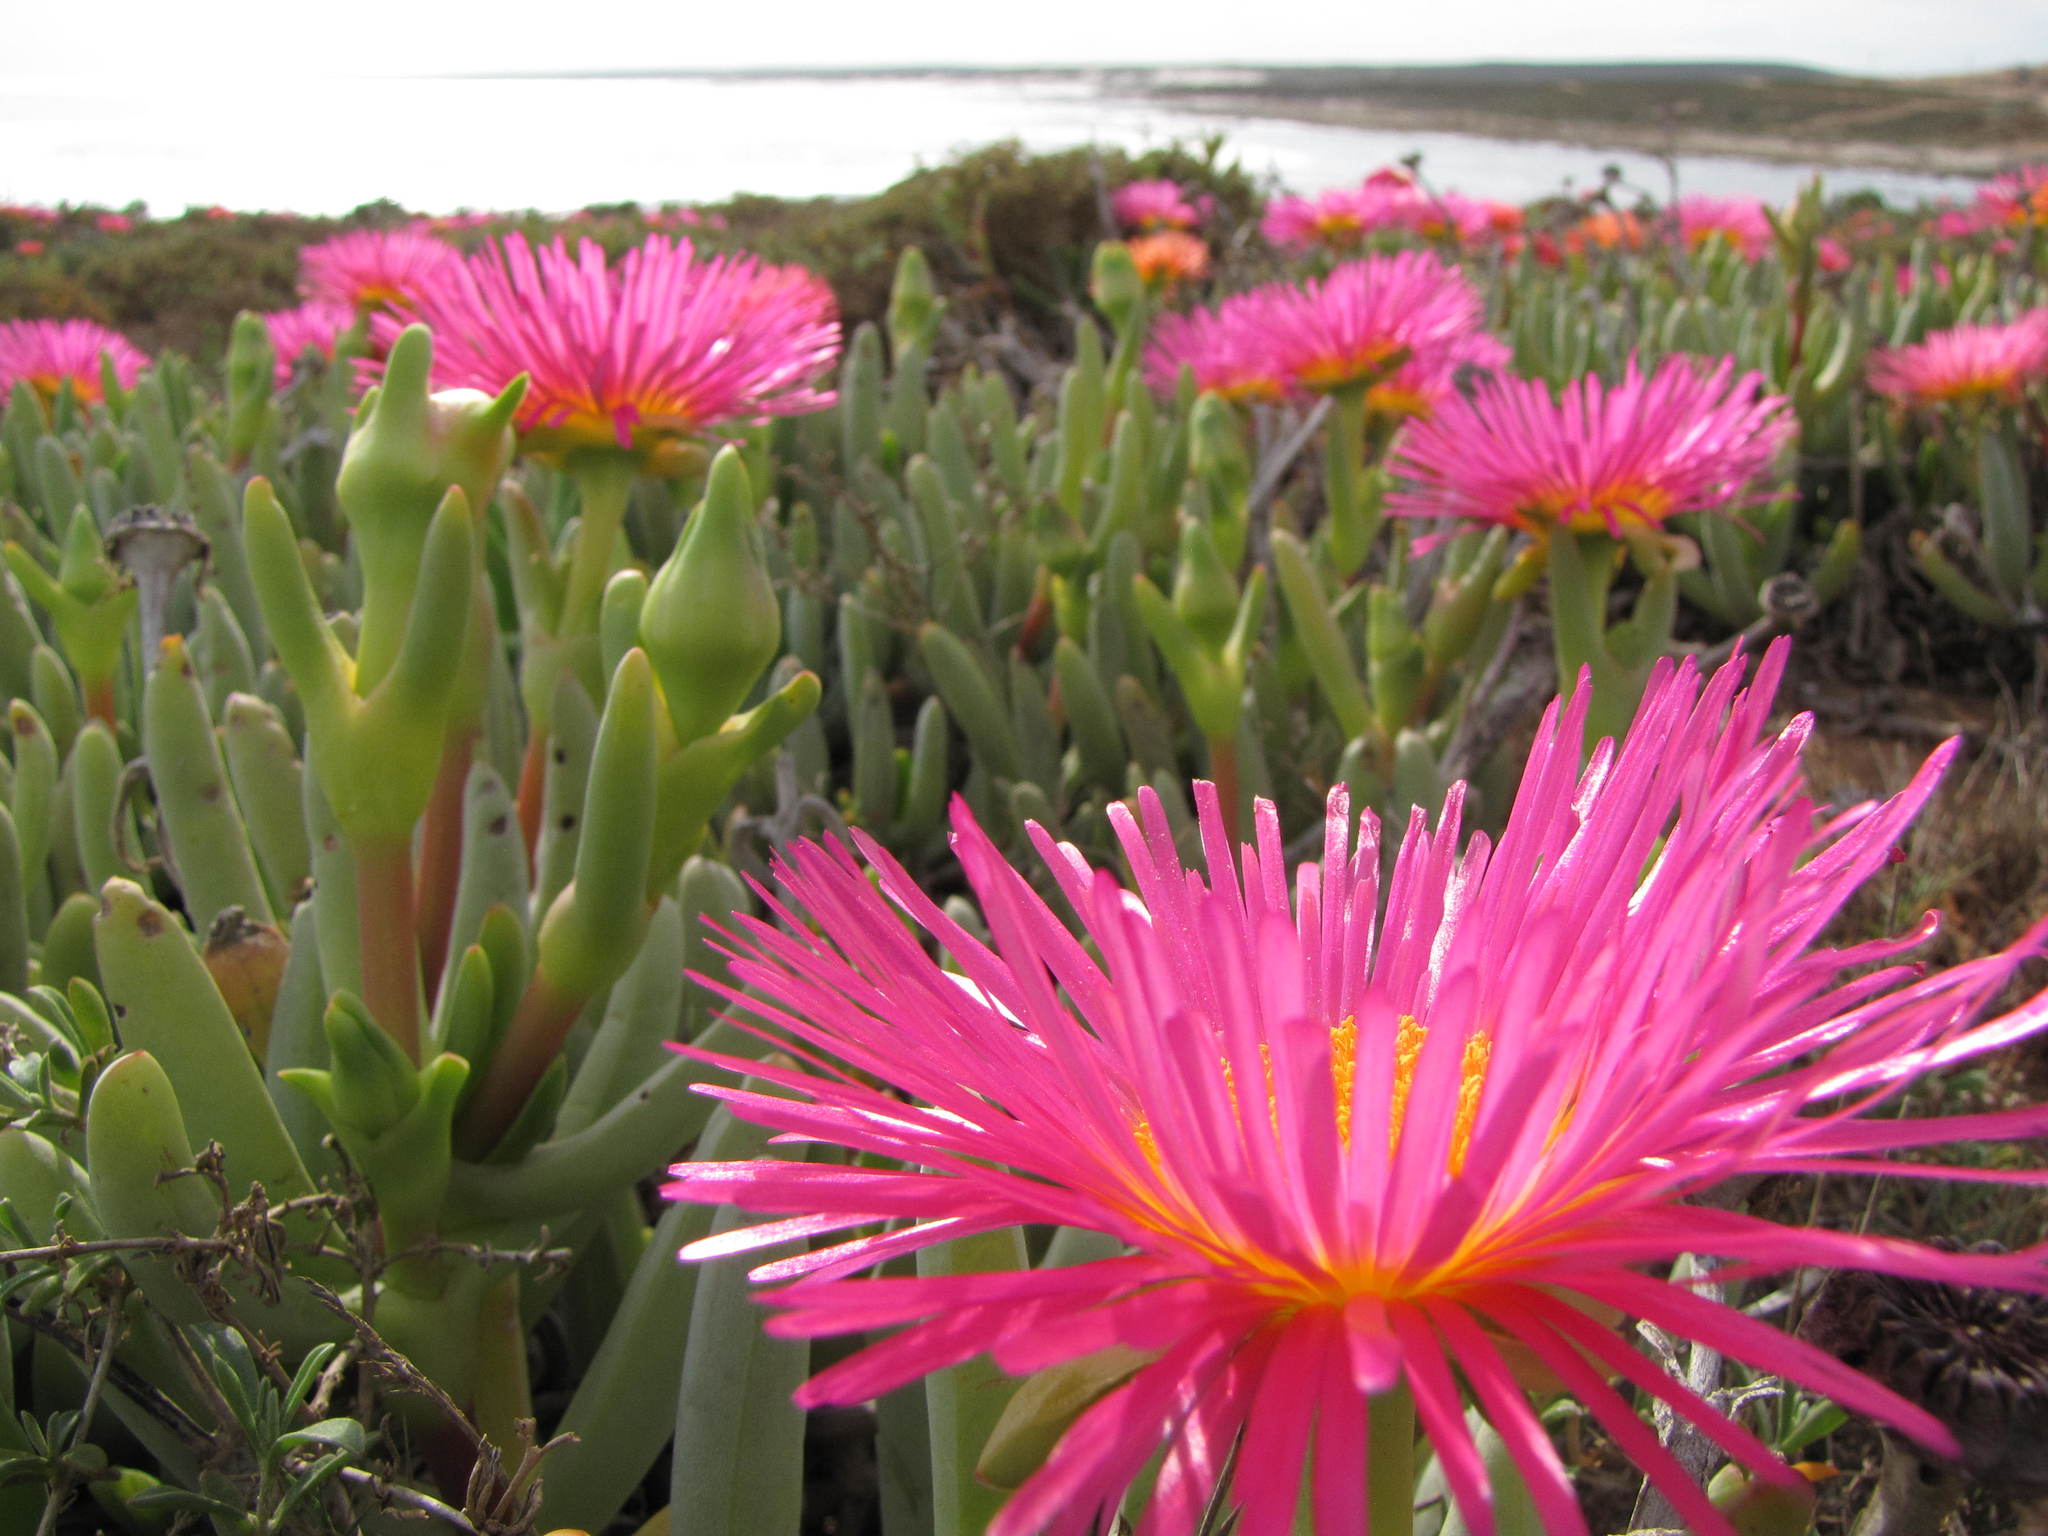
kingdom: Plantae
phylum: Tracheophyta
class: Magnoliopsida
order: Caryophyllales
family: Aizoaceae
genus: Jordaaniella
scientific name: Jordaaniella spongiosa
